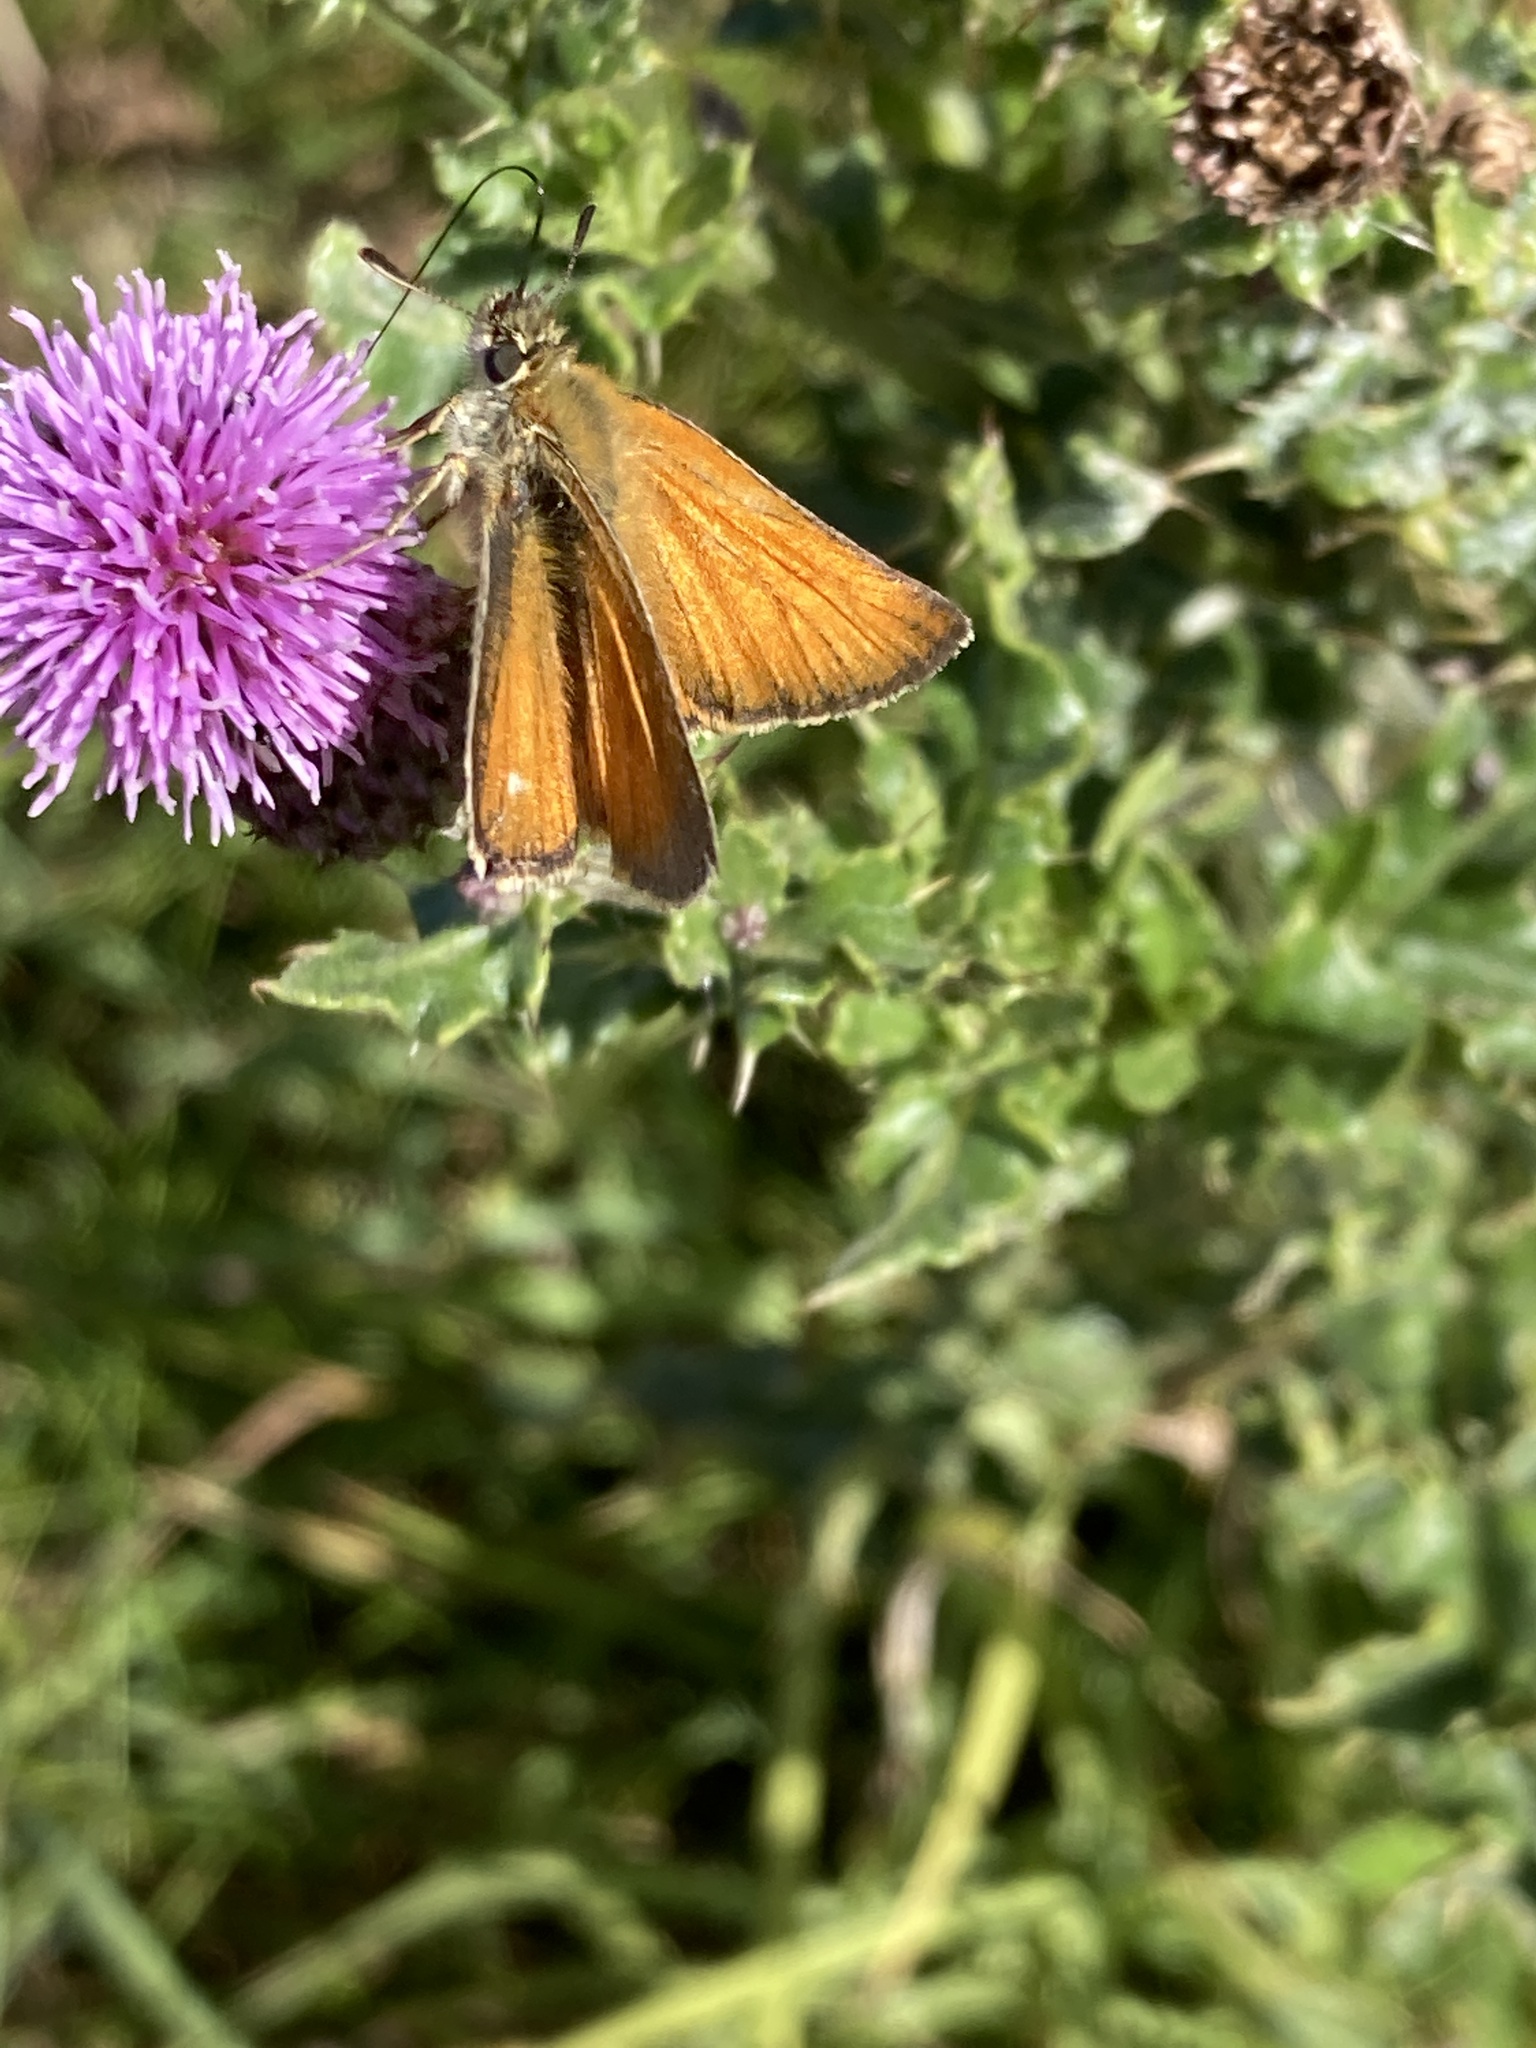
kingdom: Animalia
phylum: Arthropoda
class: Insecta
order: Lepidoptera
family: Hesperiidae
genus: Thymelicus
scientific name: Thymelicus sylvestris
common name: Small skipper
